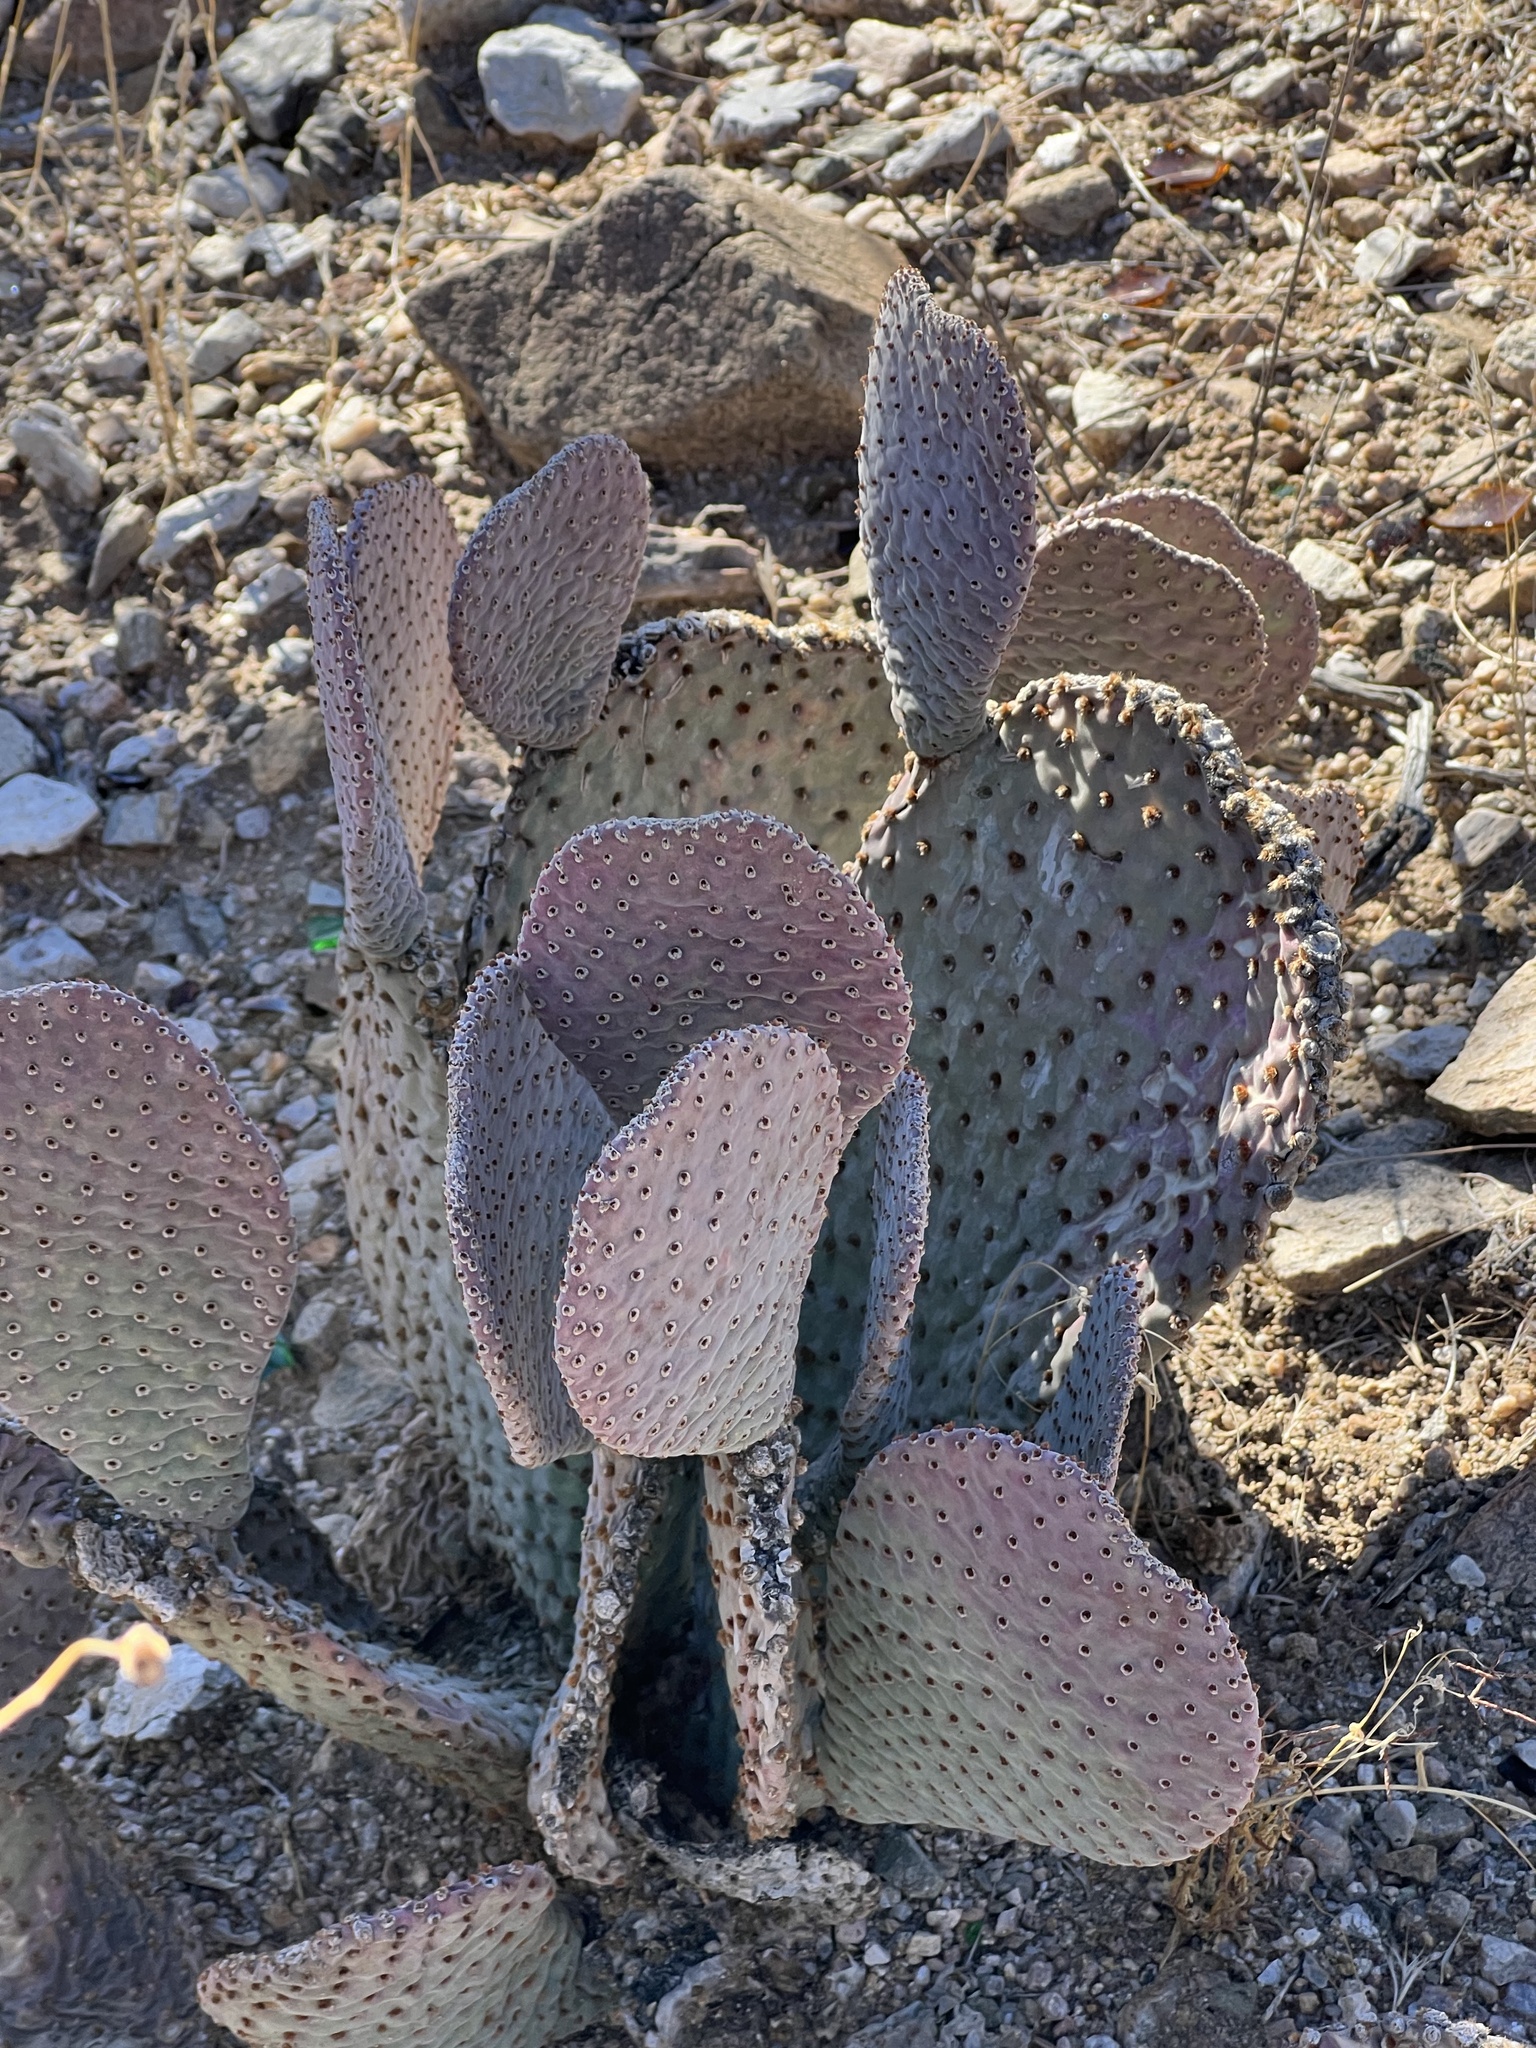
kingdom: Plantae
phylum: Tracheophyta
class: Magnoliopsida
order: Caryophyllales
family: Cactaceae
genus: Opuntia
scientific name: Opuntia basilaris
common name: Beavertail prickly-pear
